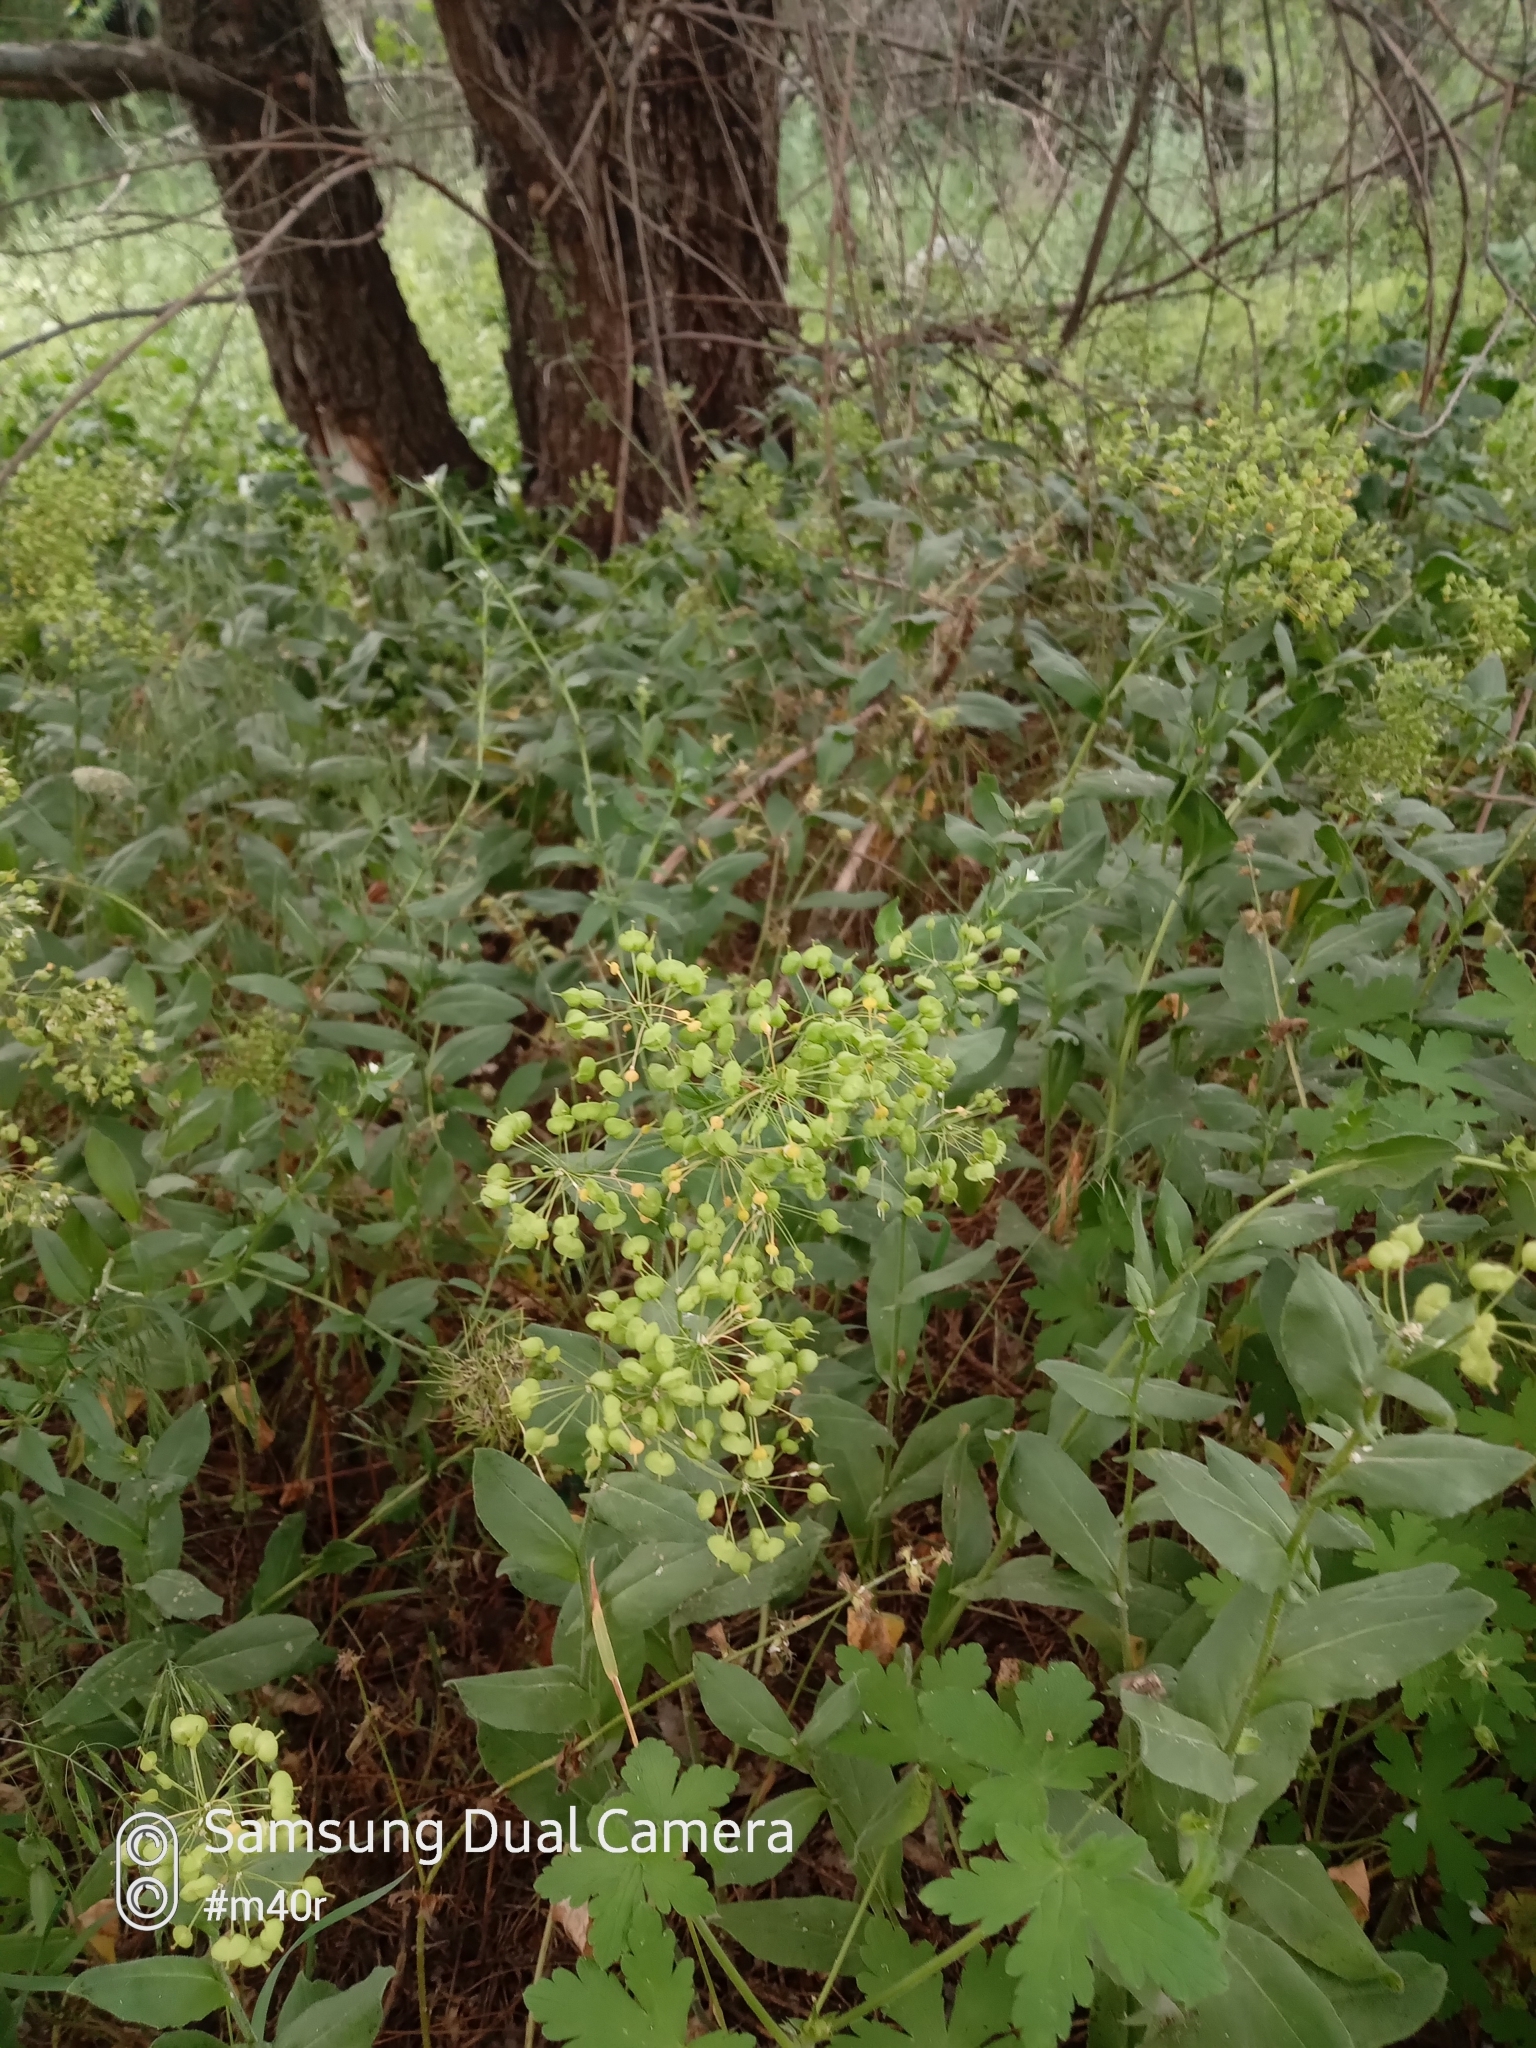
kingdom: Plantae
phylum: Tracheophyta
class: Magnoliopsida
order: Brassicales
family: Brassicaceae
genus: Lepidium
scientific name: Lepidium chalepense
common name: Orbicular whitetop
